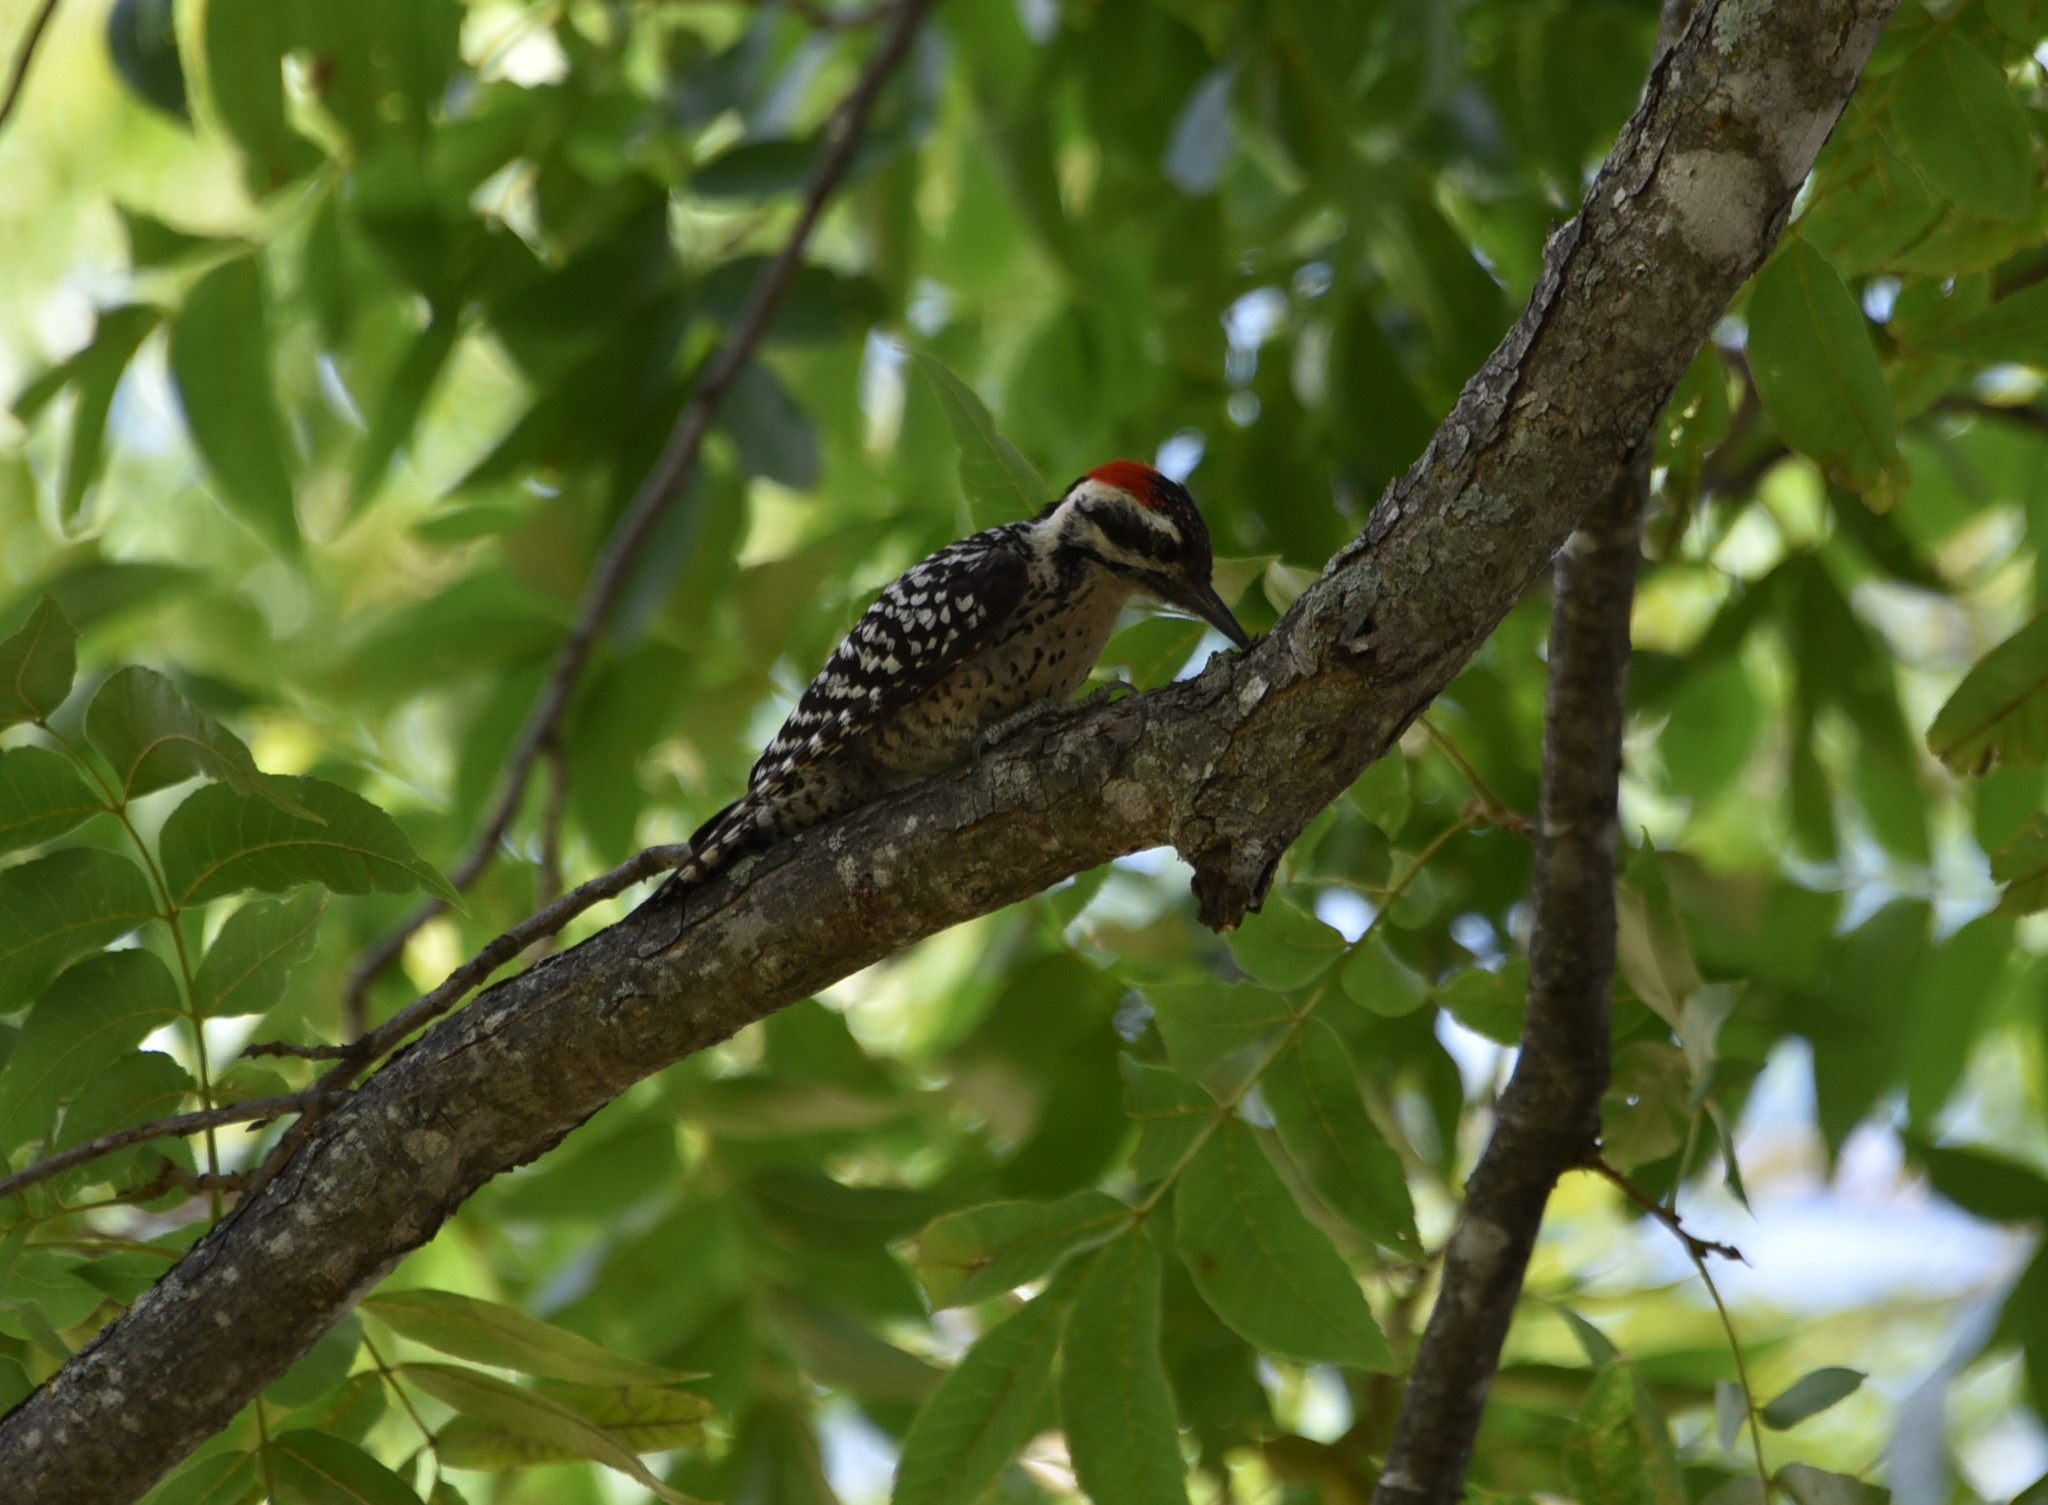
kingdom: Animalia
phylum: Chordata
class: Aves
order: Piciformes
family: Picidae
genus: Dryobates
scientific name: Dryobates scalaris
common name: Ladder-backed woodpecker
